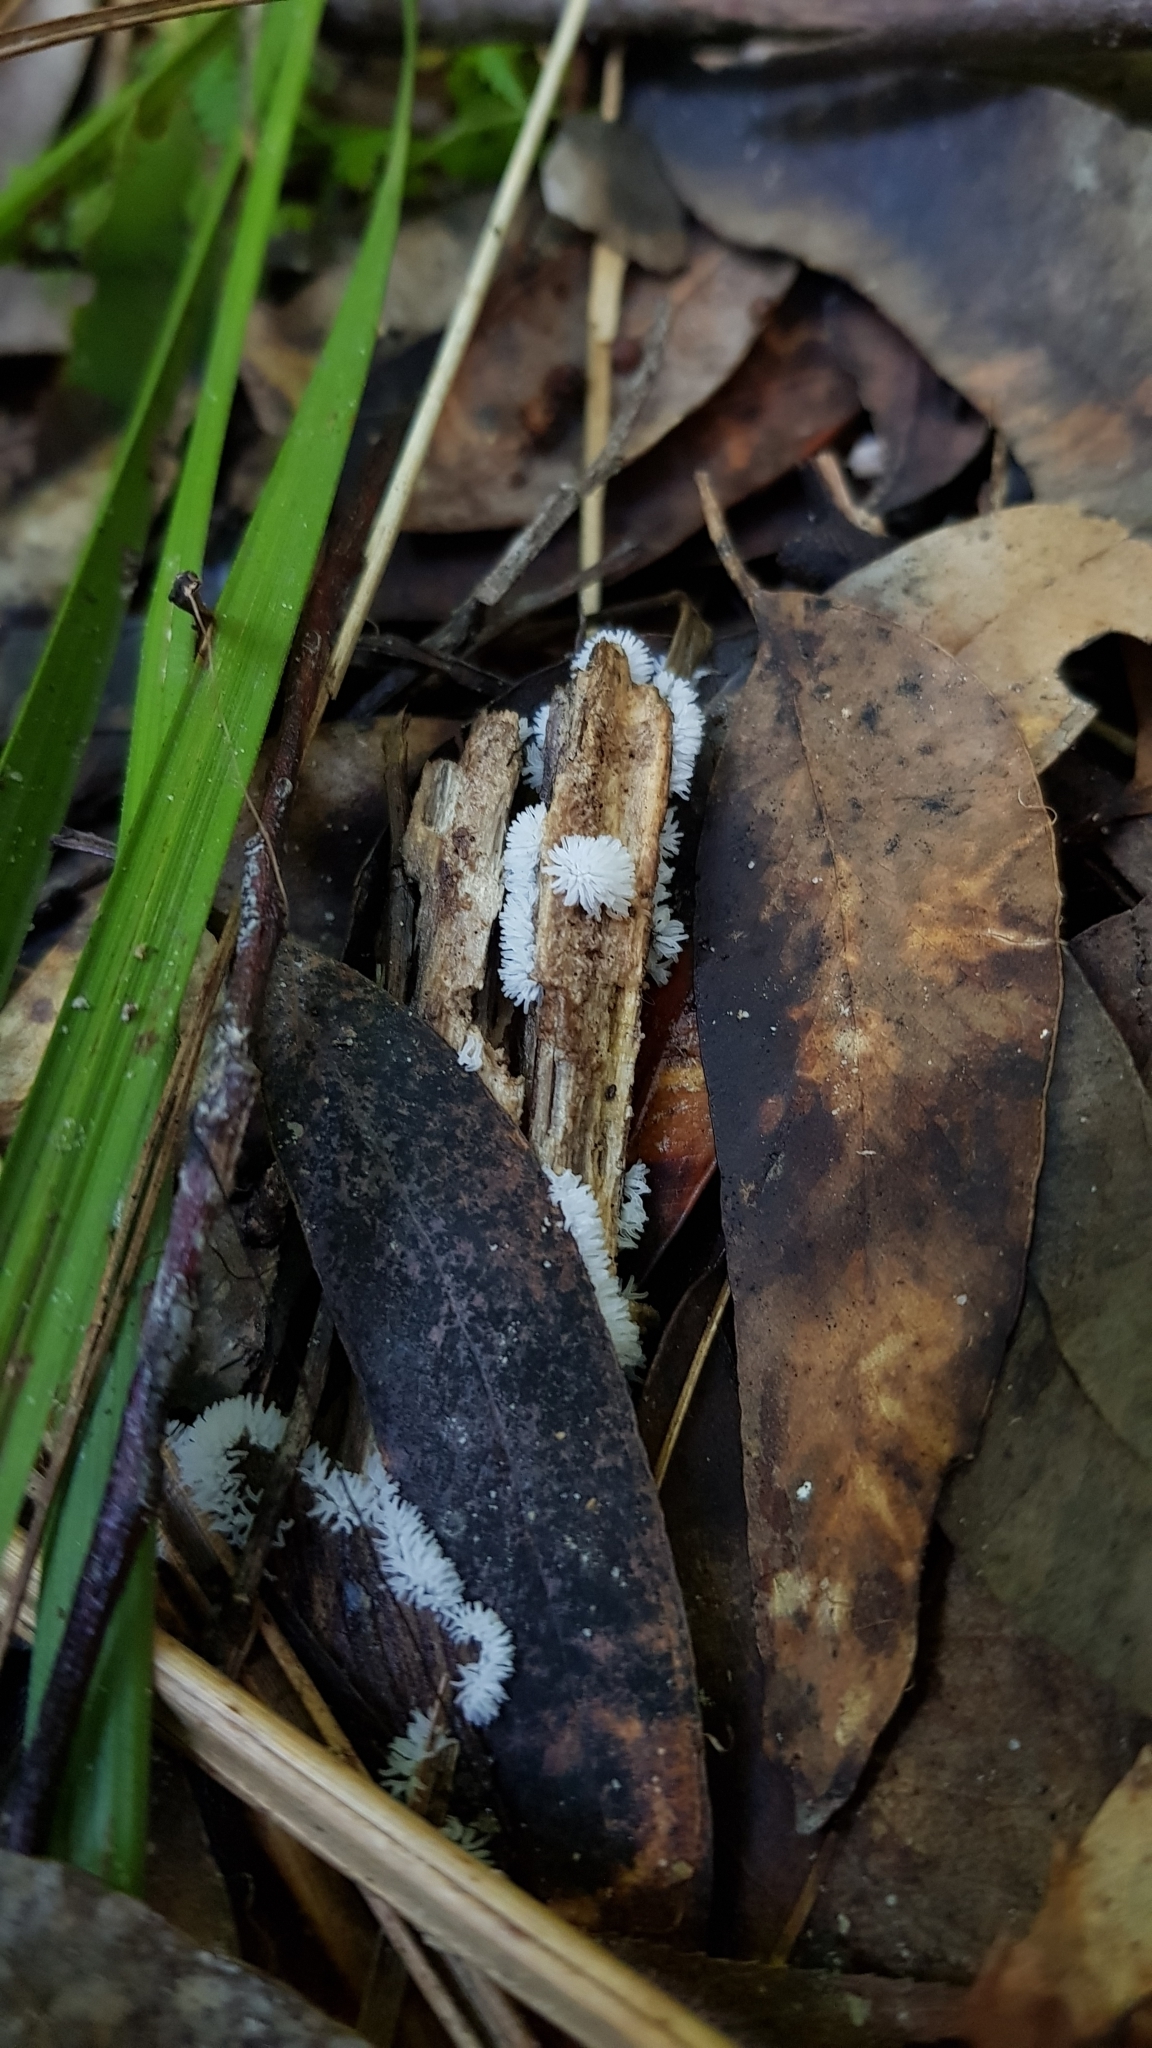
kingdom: Protozoa
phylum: Mycetozoa
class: Protosteliomycetes
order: Ceratiomyxales
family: Ceratiomyxaceae
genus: Ceratiomyxa
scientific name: Ceratiomyxa fruticulosa
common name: Honeycomb coral slime mold
